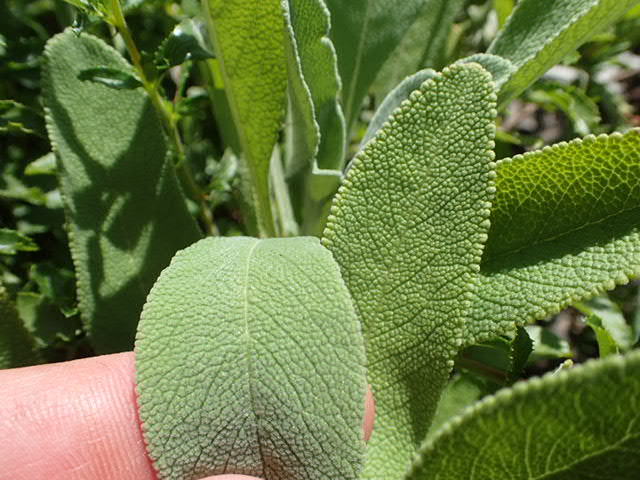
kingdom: Plantae
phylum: Tracheophyta
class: Magnoliopsida
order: Lamiales
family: Lamiaceae
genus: Salvia
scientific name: Salvia sonomensis
